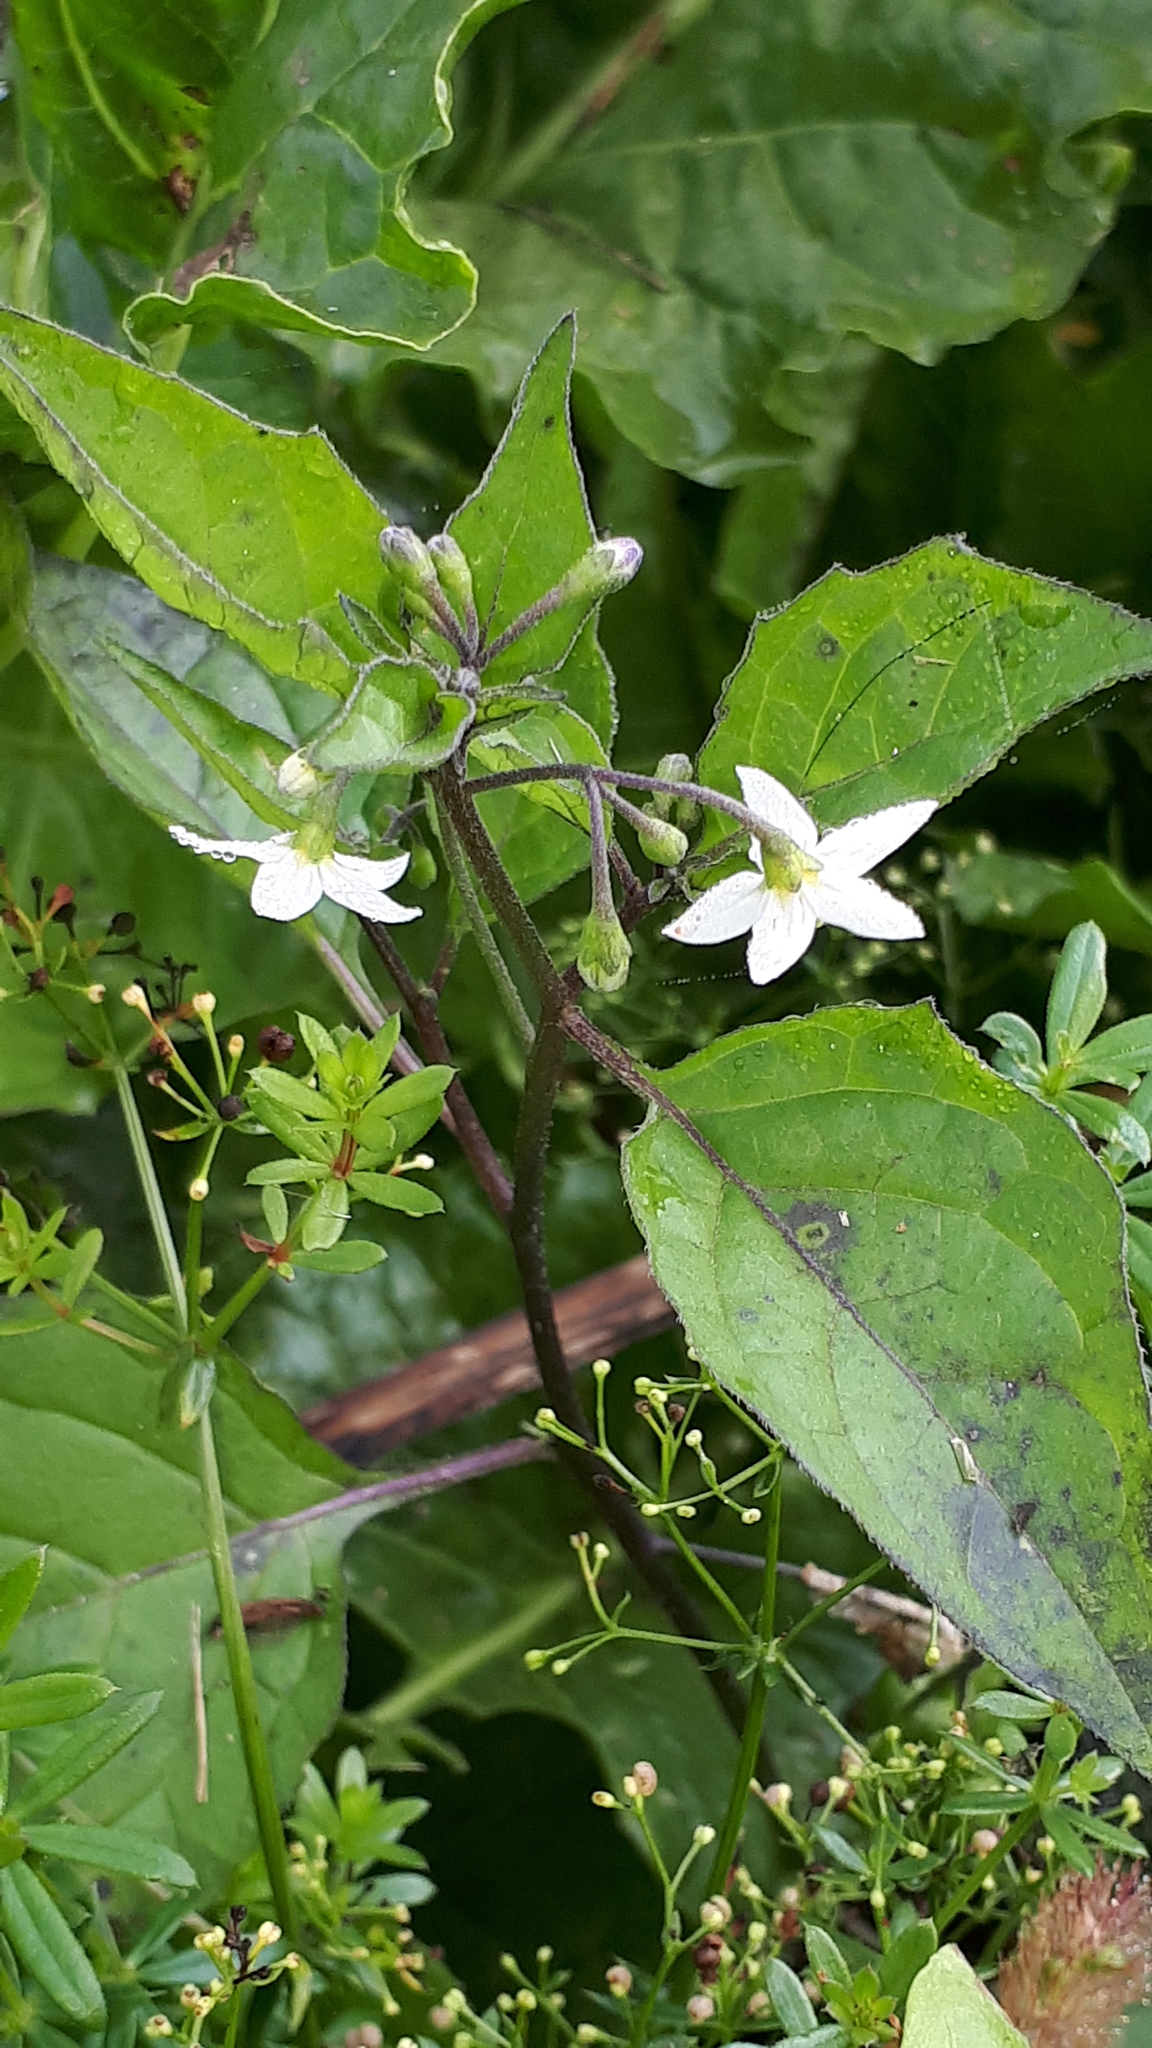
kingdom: Plantae
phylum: Tracheophyta
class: Magnoliopsida
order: Solanales
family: Solanaceae
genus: Solanum
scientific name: Solanum nigrum
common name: Black nightshade
